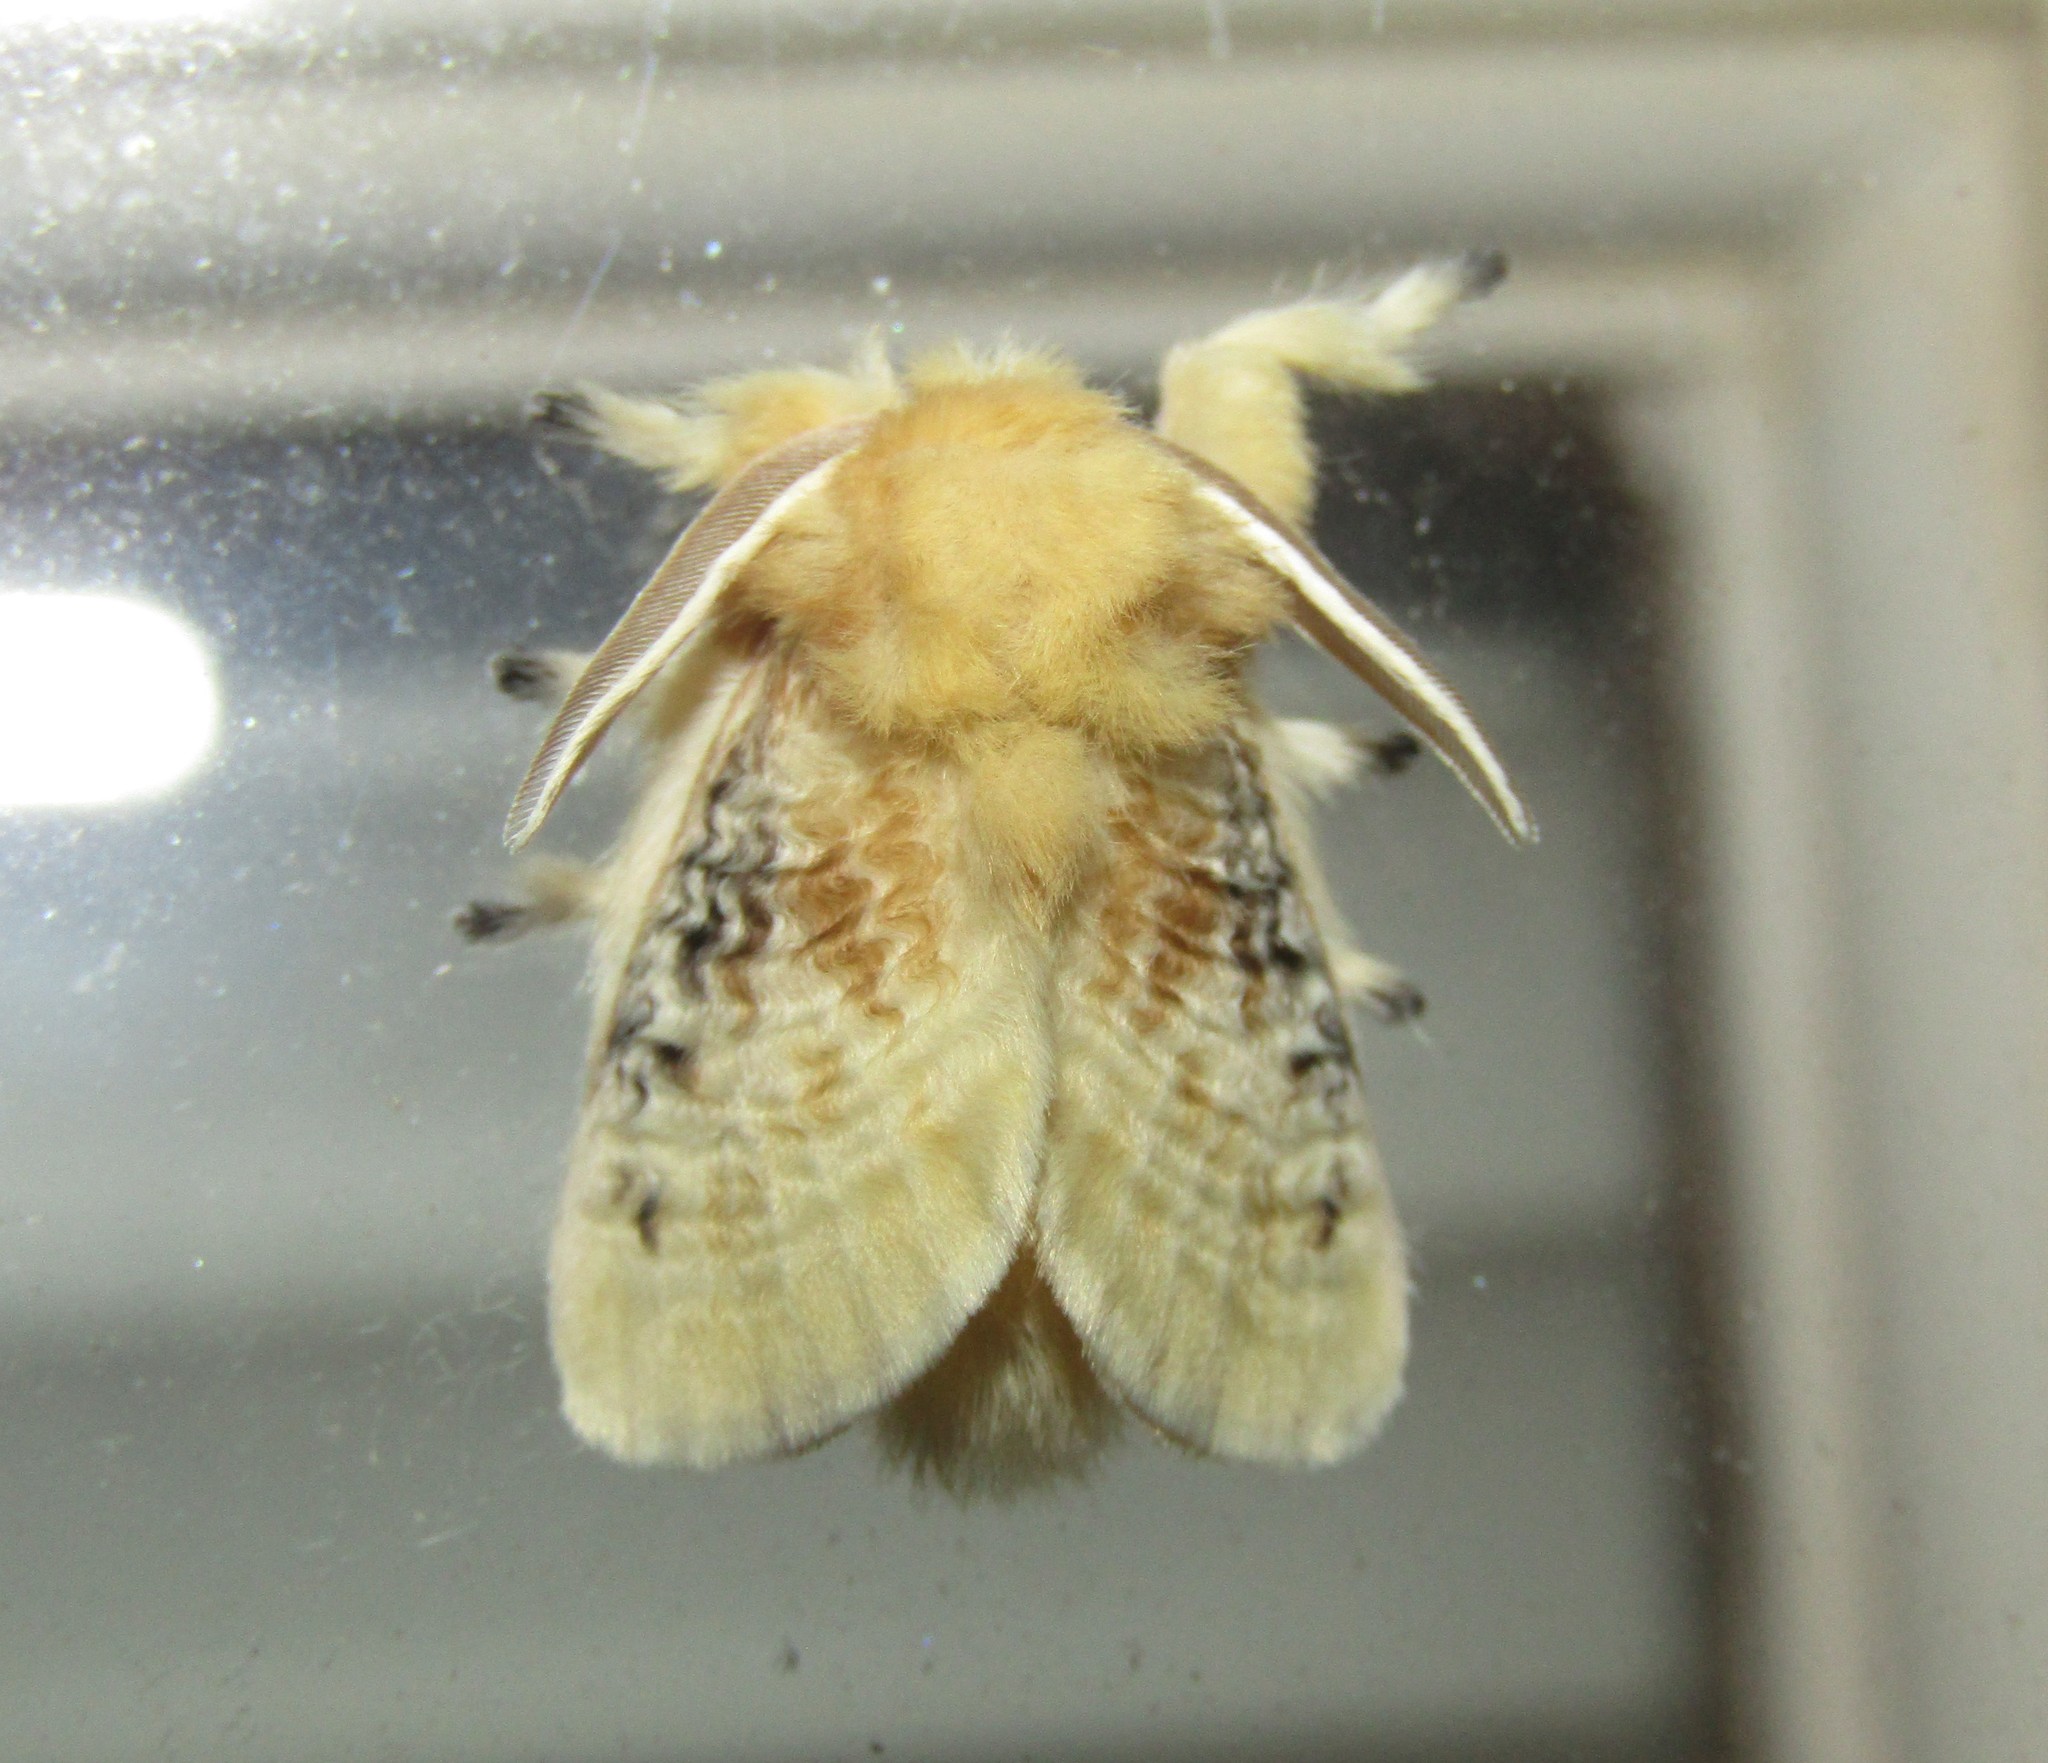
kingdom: Animalia
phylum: Arthropoda
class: Insecta
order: Lepidoptera
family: Megalopygidae
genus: Megalopyge
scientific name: Megalopyge crispata
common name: Black-waved flannel moth
